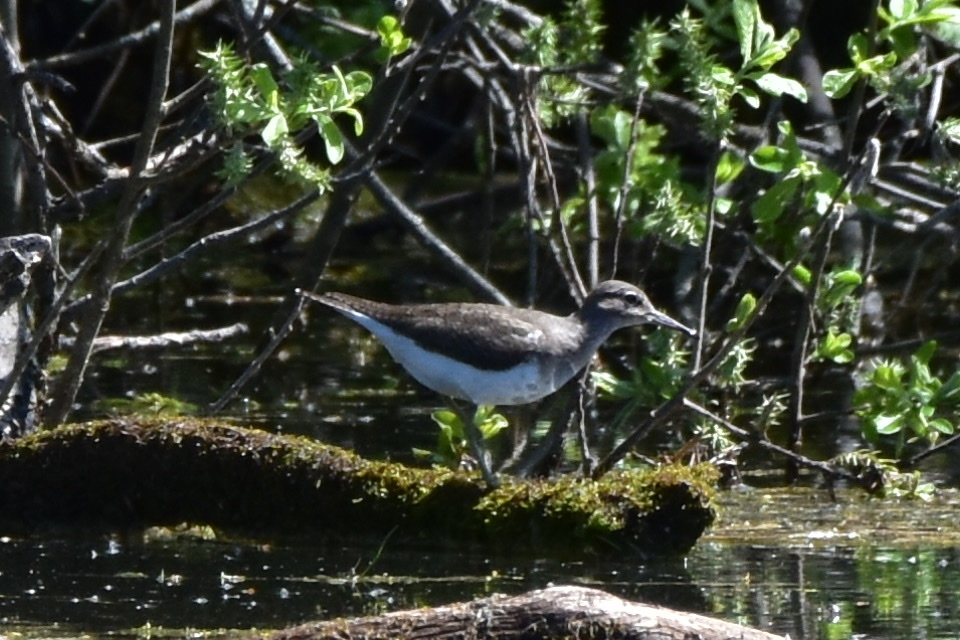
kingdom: Animalia
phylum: Chordata
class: Aves
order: Charadriiformes
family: Scolopacidae
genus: Tringa
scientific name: Tringa ochropus
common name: Green sandpiper
